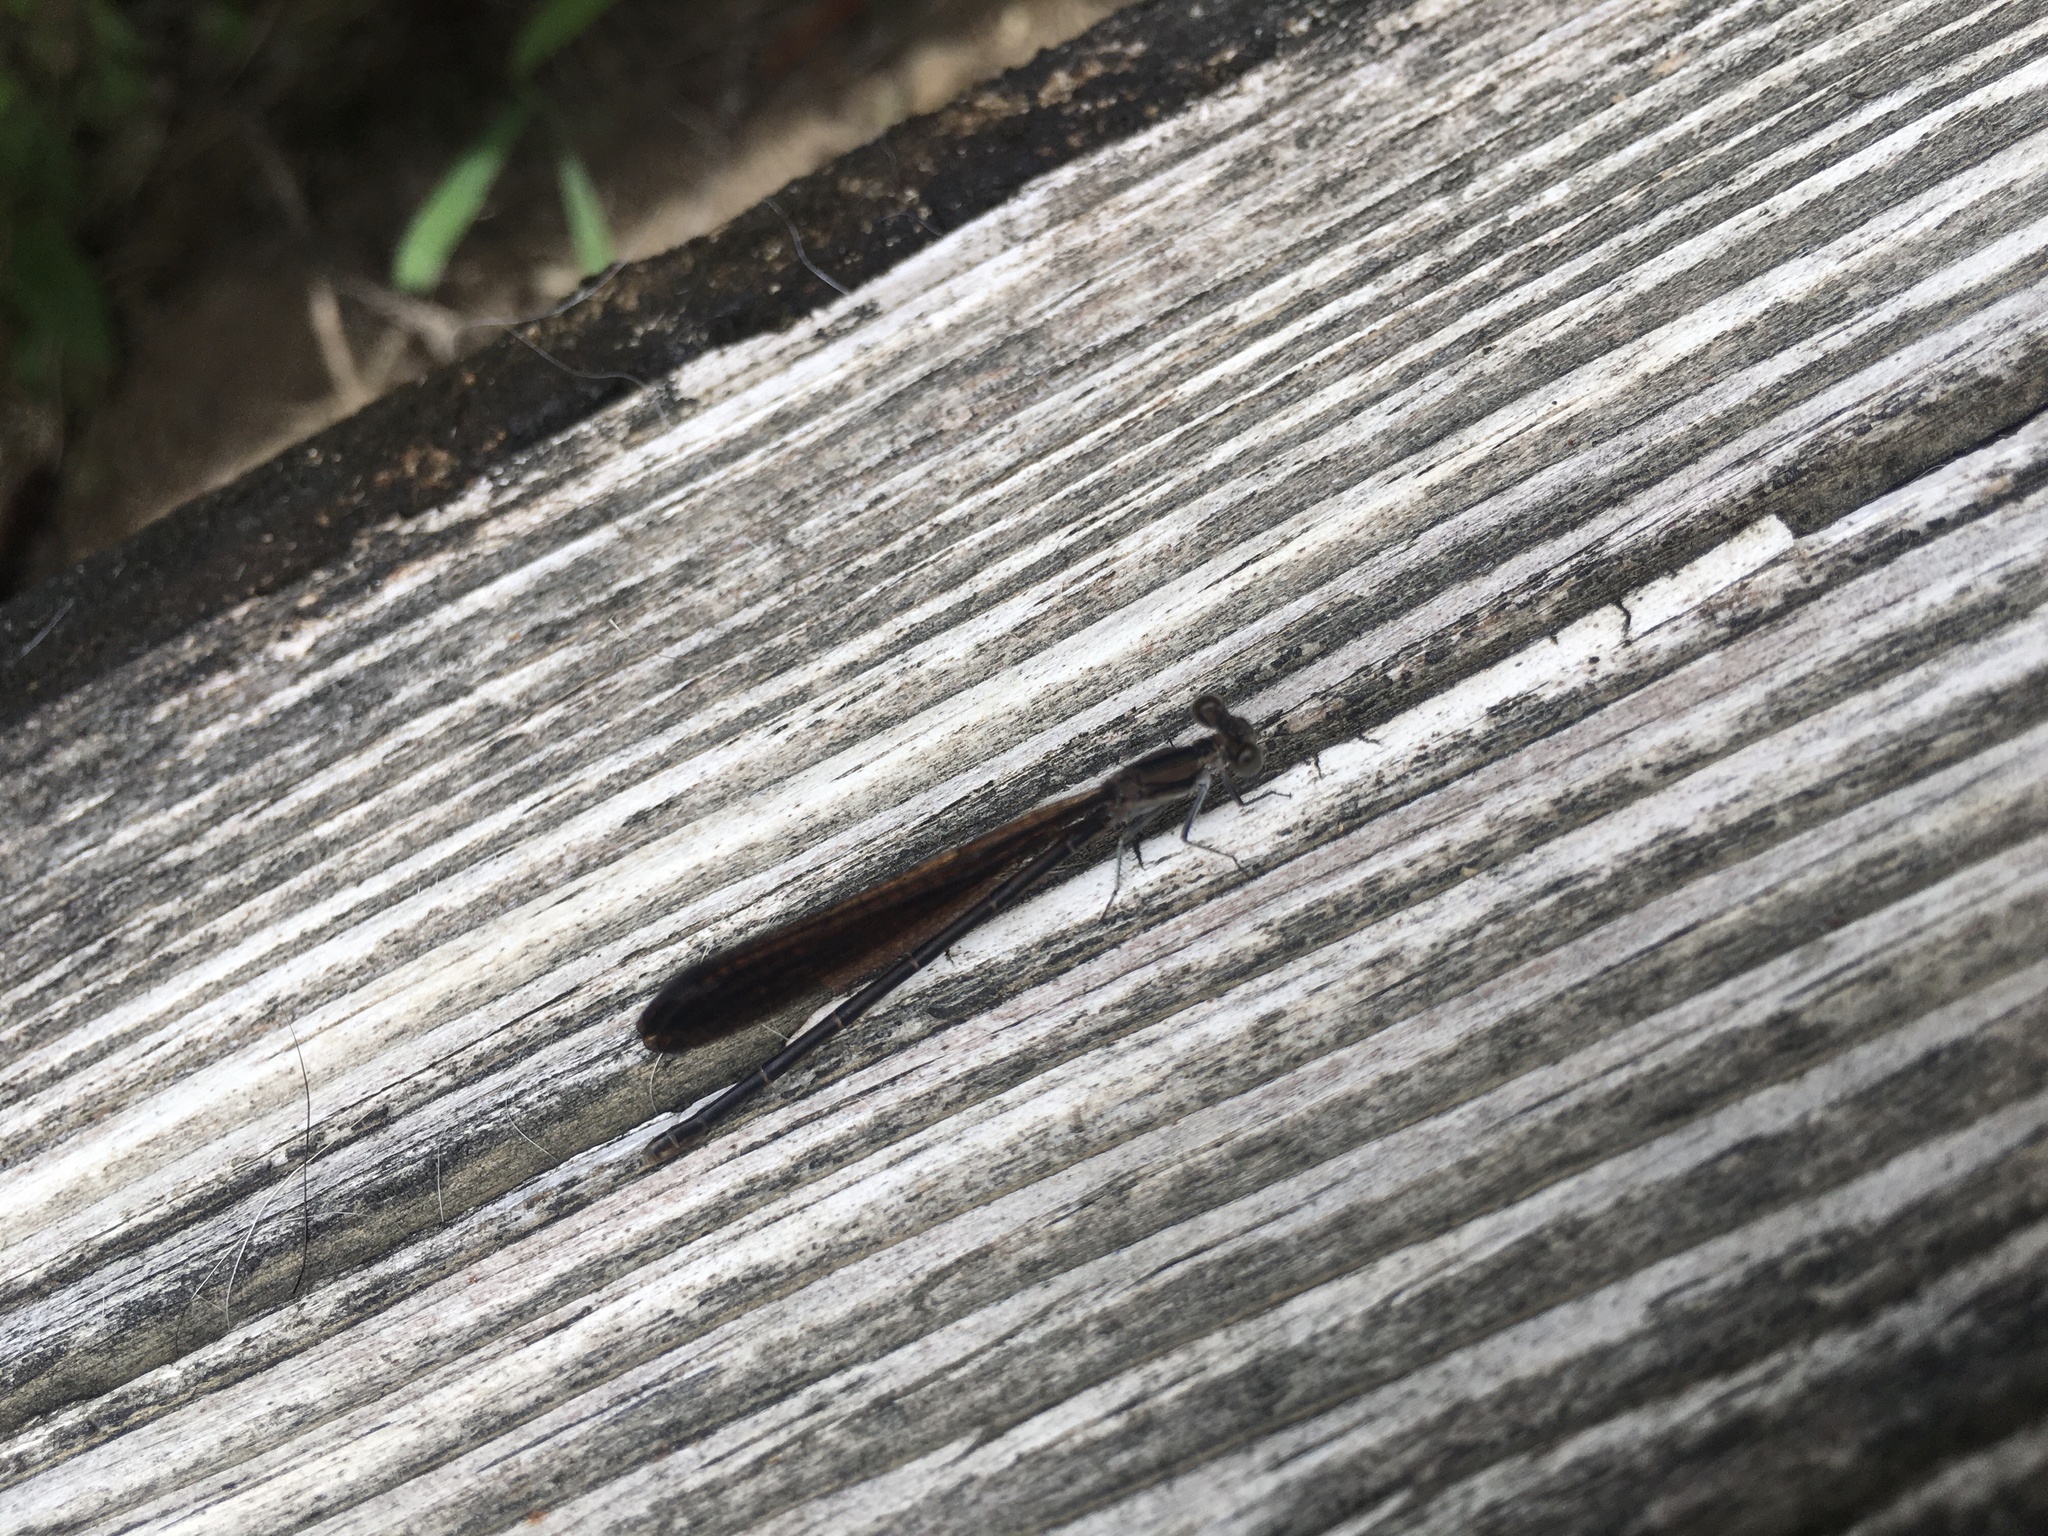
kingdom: Animalia
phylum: Arthropoda
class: Insecta
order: Odonata
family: Coenagrionidae
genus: Argia
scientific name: Argia fumipennis
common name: Variable dancer
